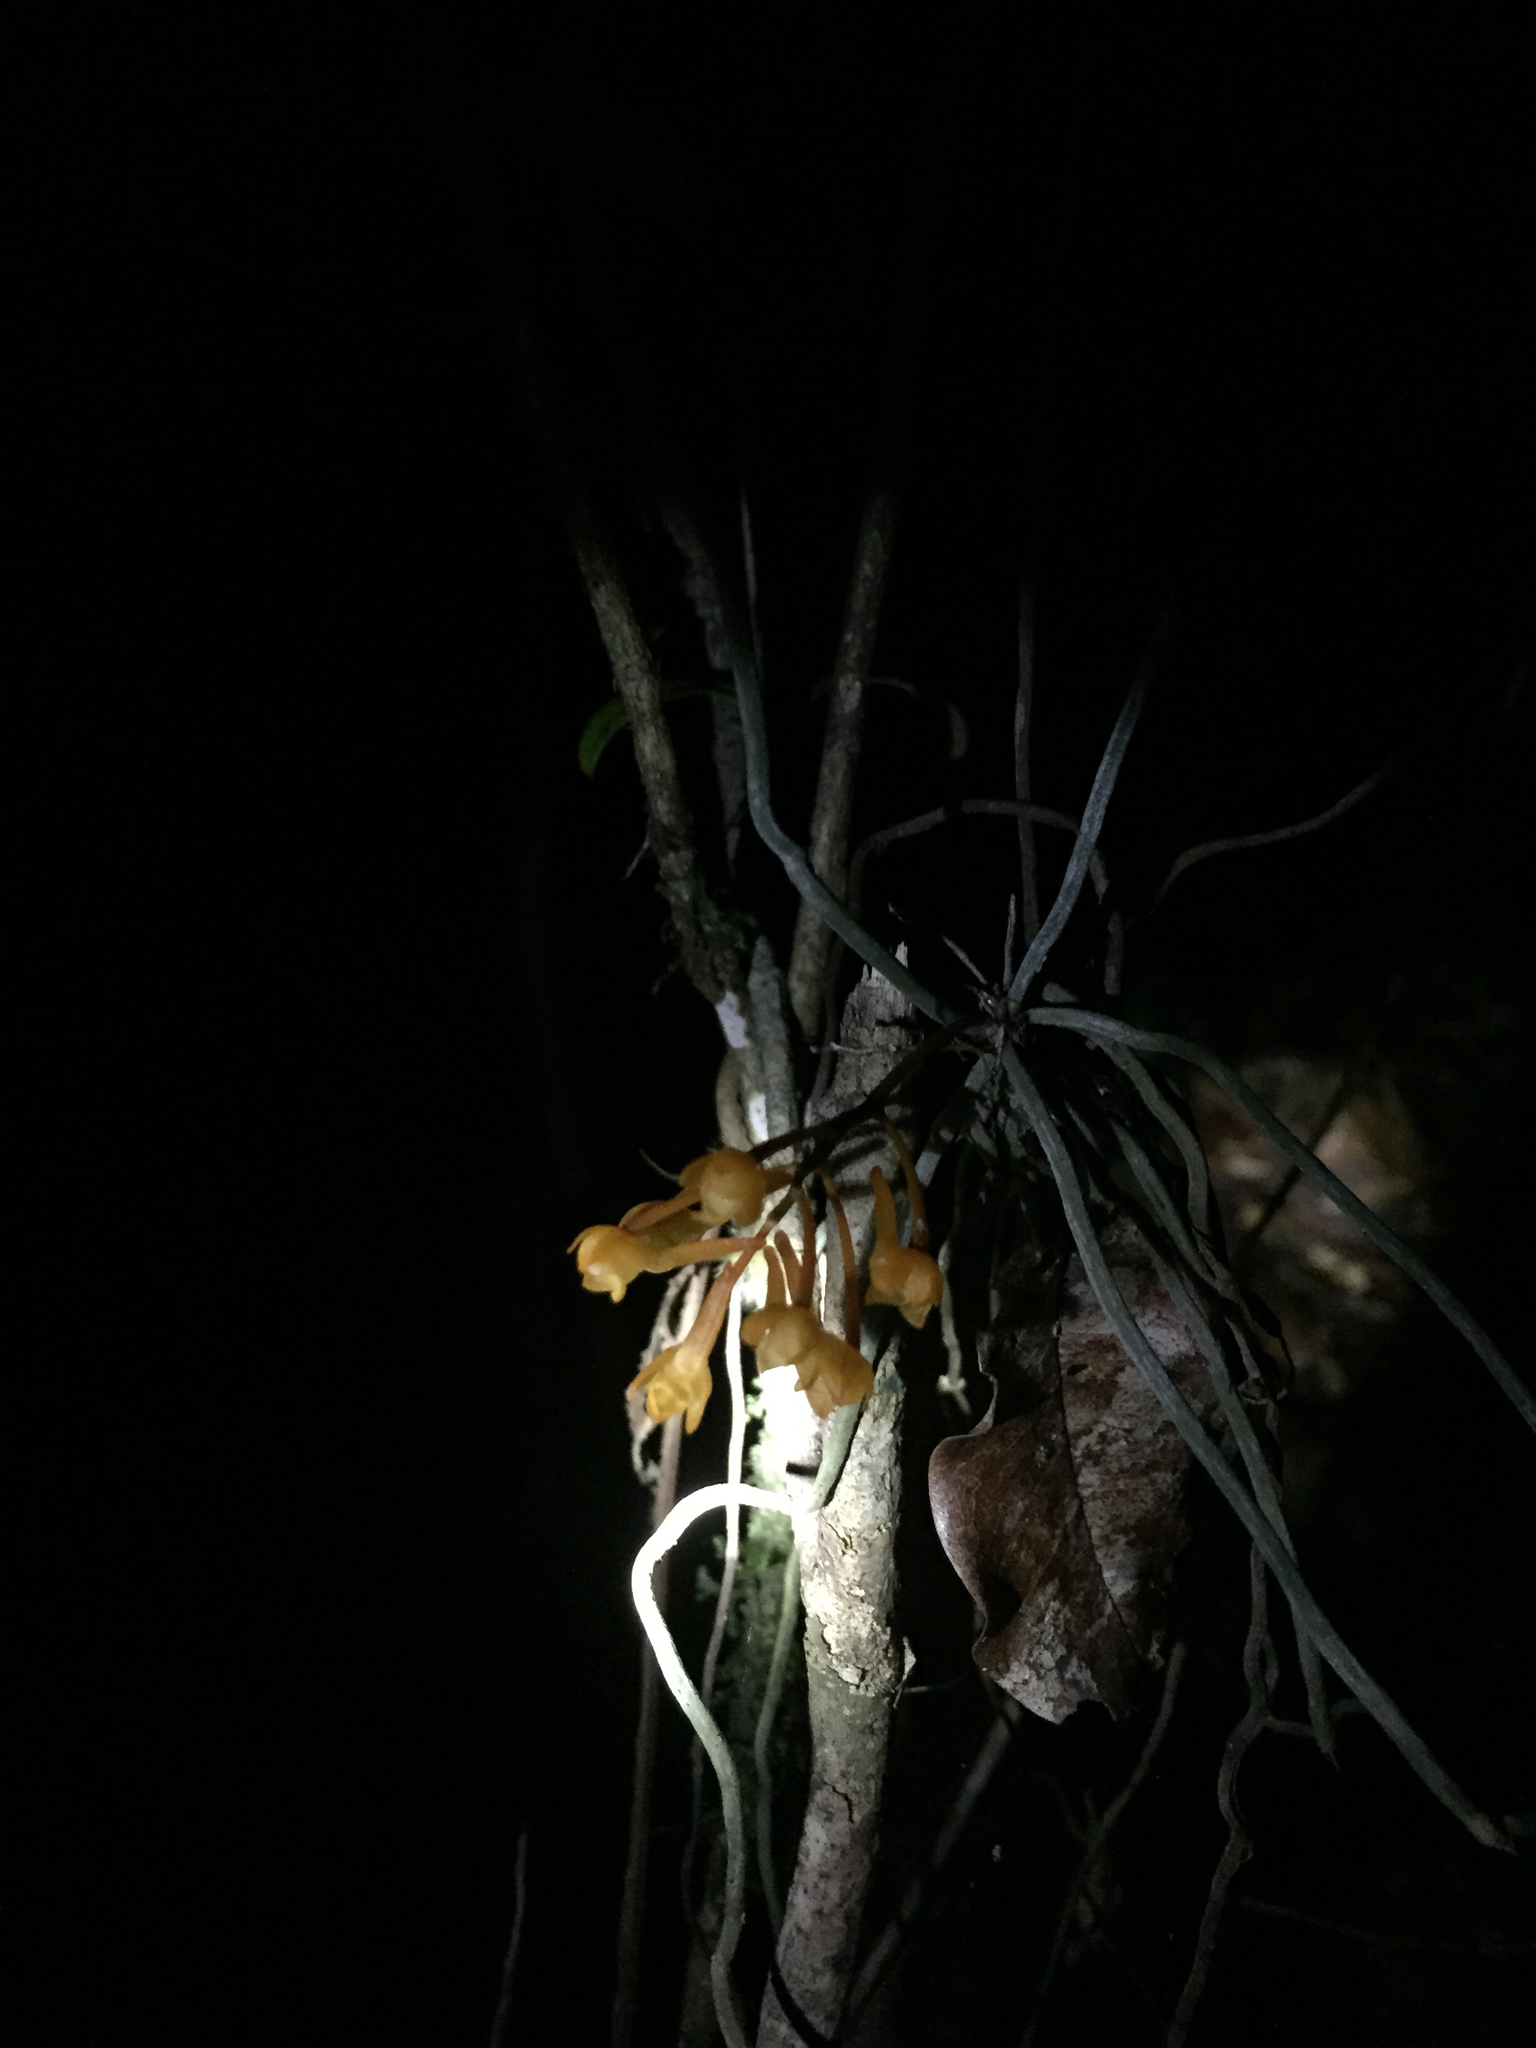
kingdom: Plantae
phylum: Tracheophyta
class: Liliopsida
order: Asparagales
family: Orchidaceae
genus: Microcoelia
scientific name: Microcoelia gilpiniae
